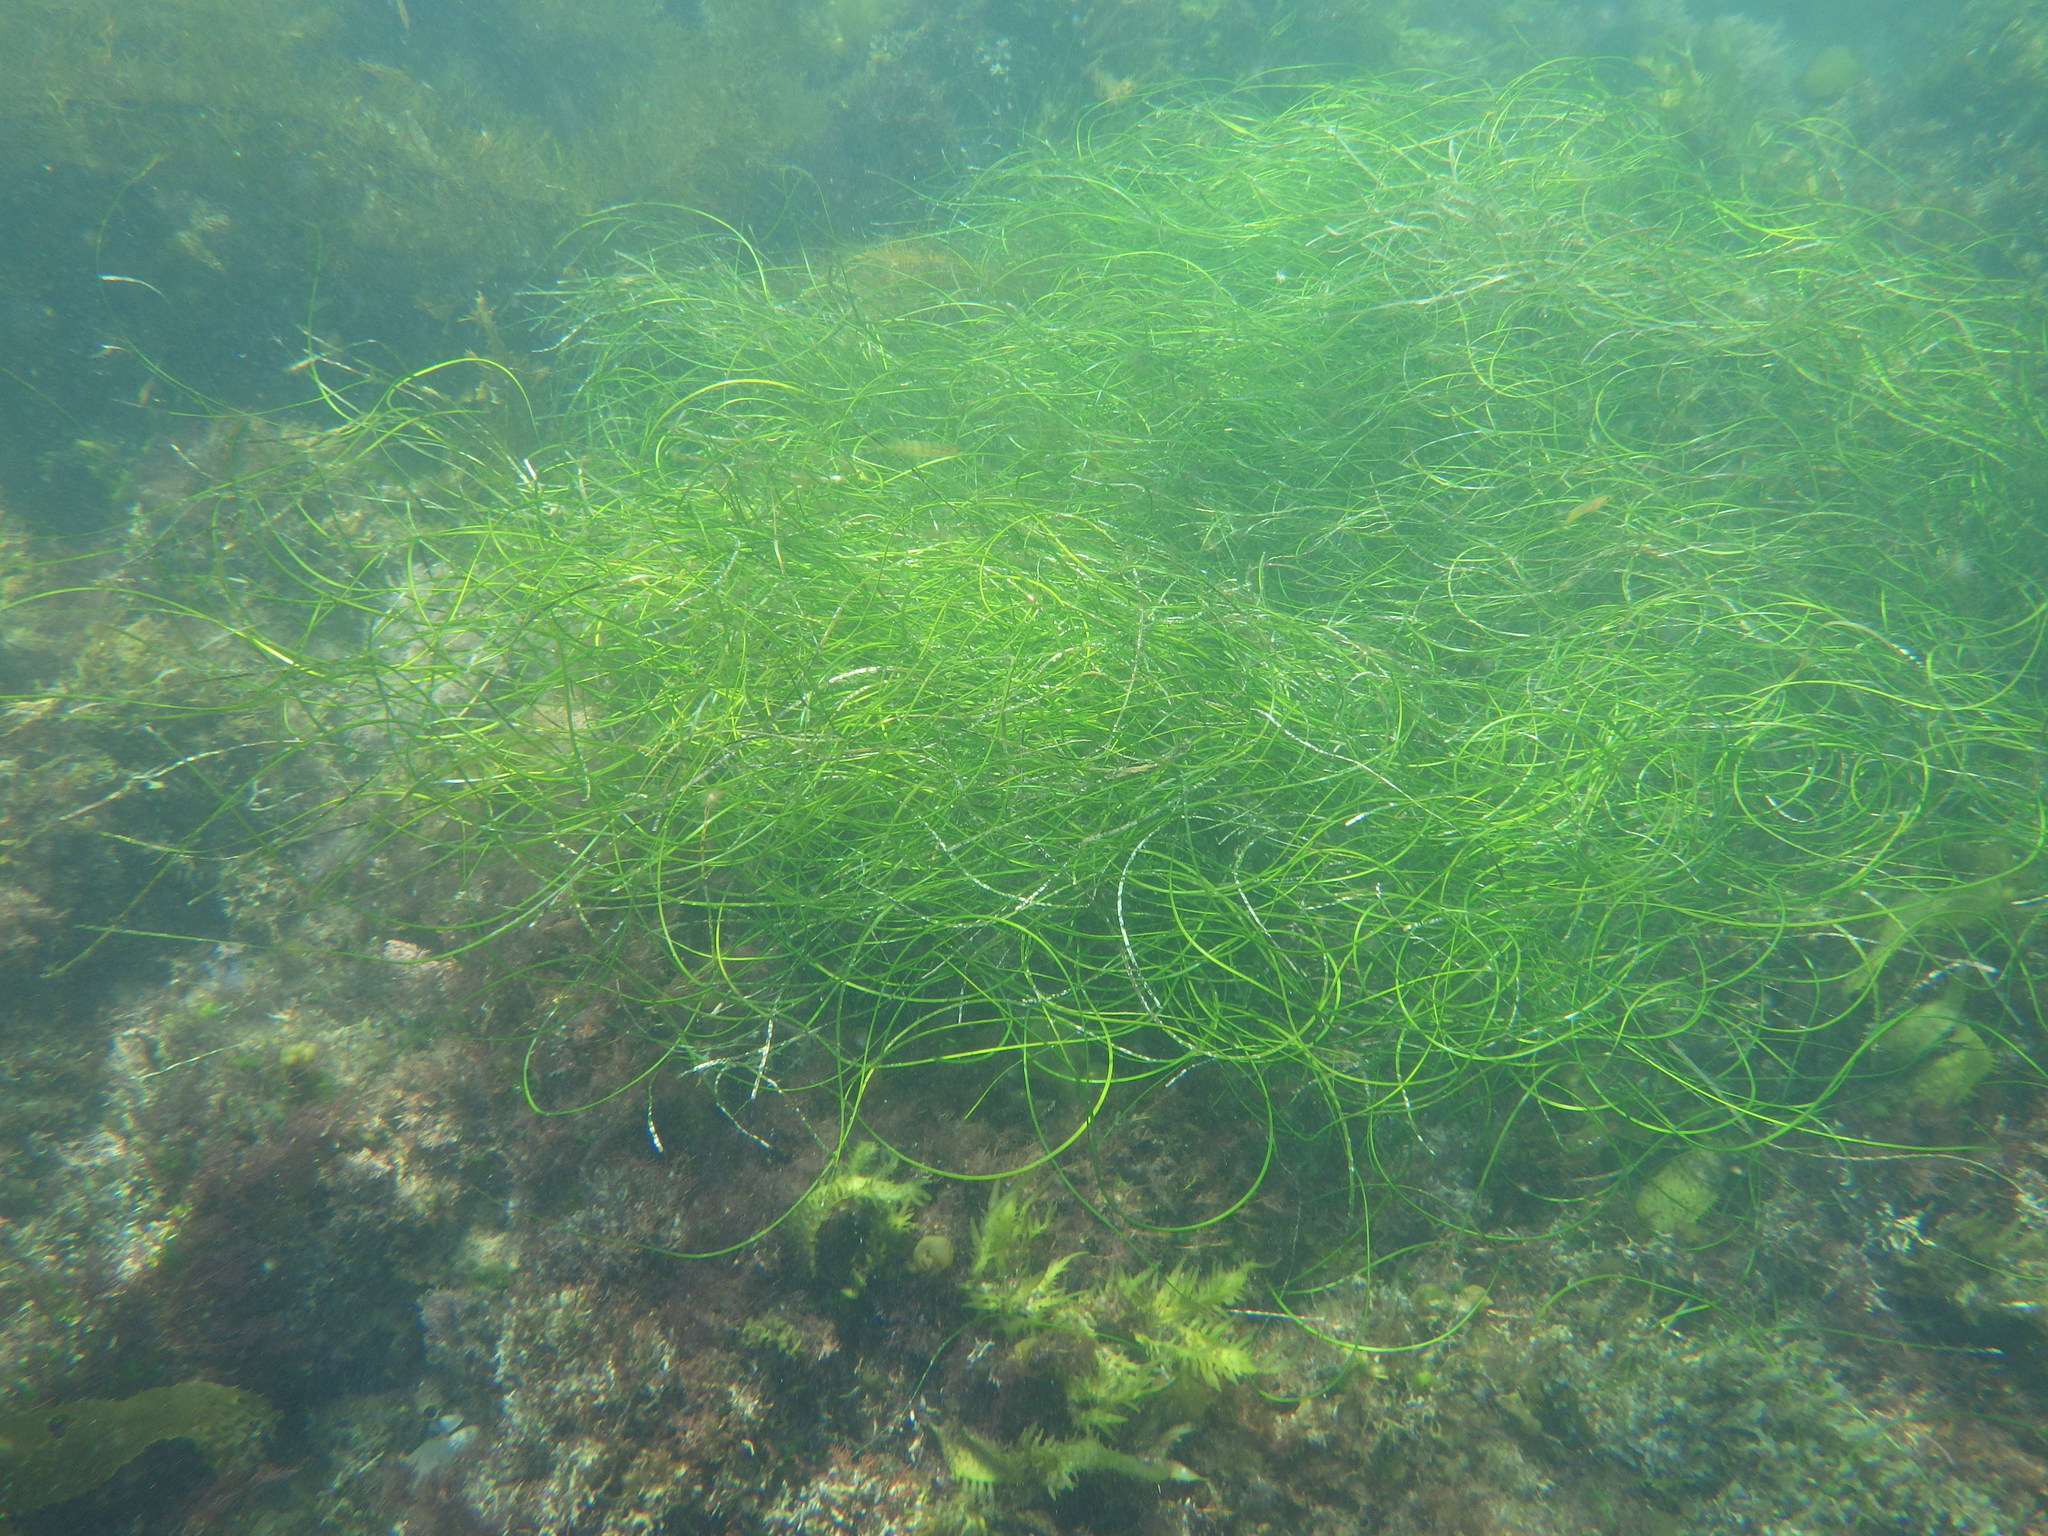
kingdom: Plantae
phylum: Tracheophyta
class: Liliopsida
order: Alismatales
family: Zosteraceae
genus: Phyllospadix
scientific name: Phyllospadix torreyi
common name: Surfgrass
